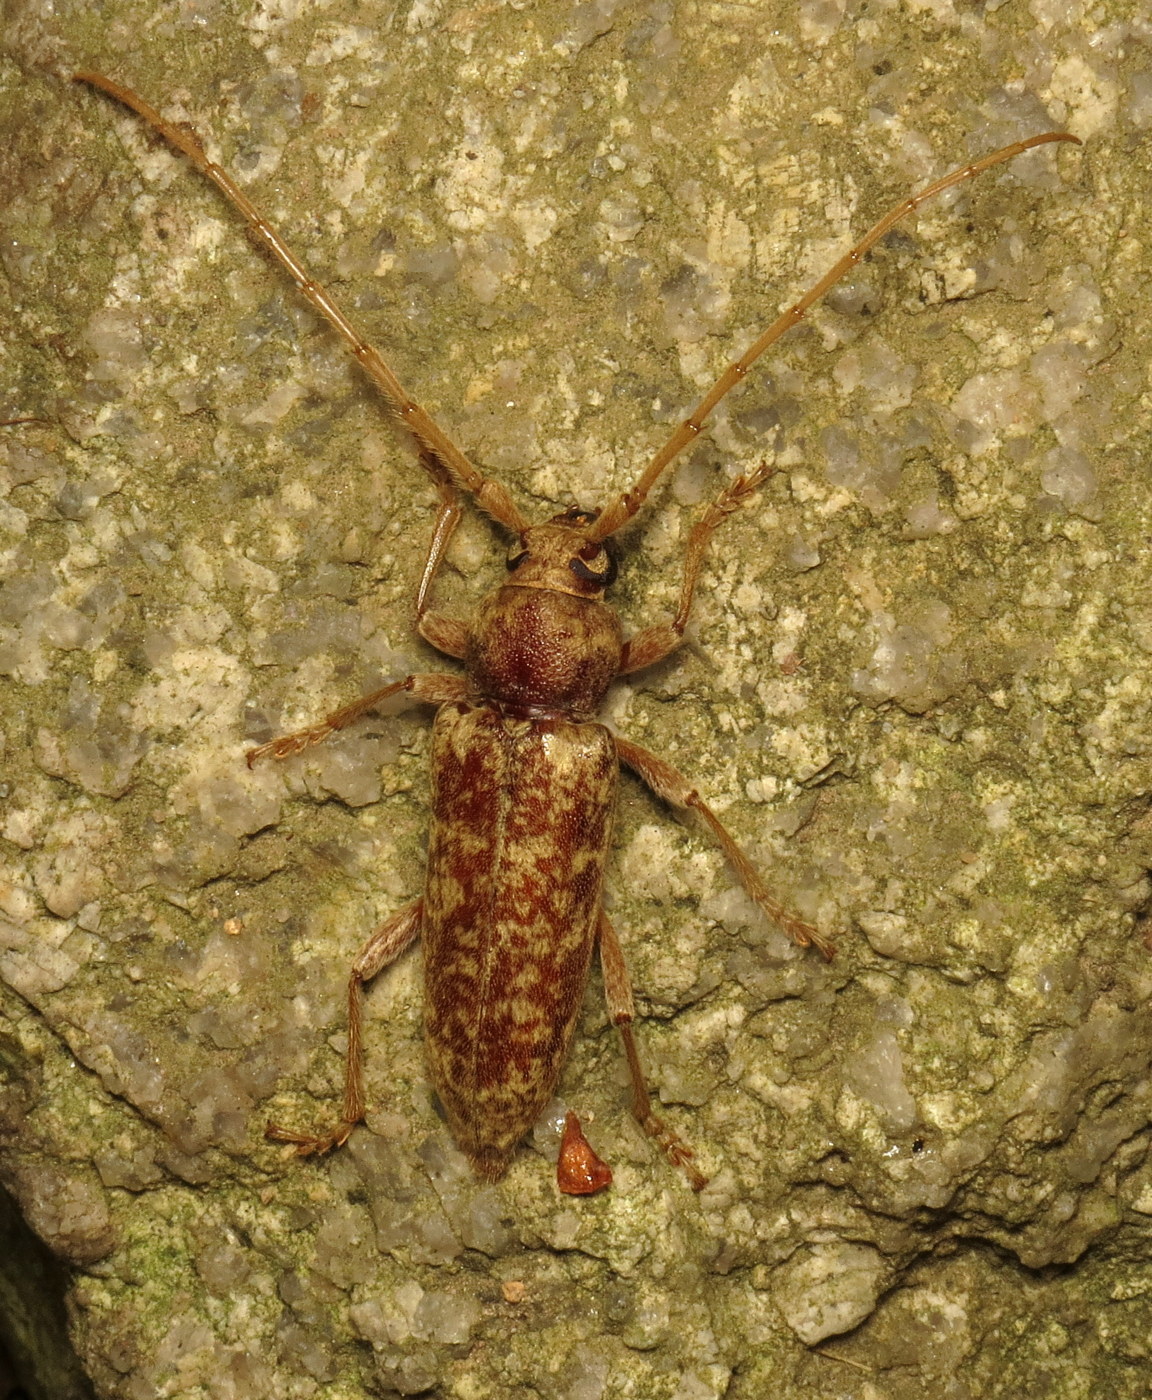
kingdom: Animalia
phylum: Arthropoda
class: Insecta
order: Coleoptera
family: Cerambycidae
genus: Enaphalodes
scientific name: Enaphalodes rufulus
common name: Red oak borer
